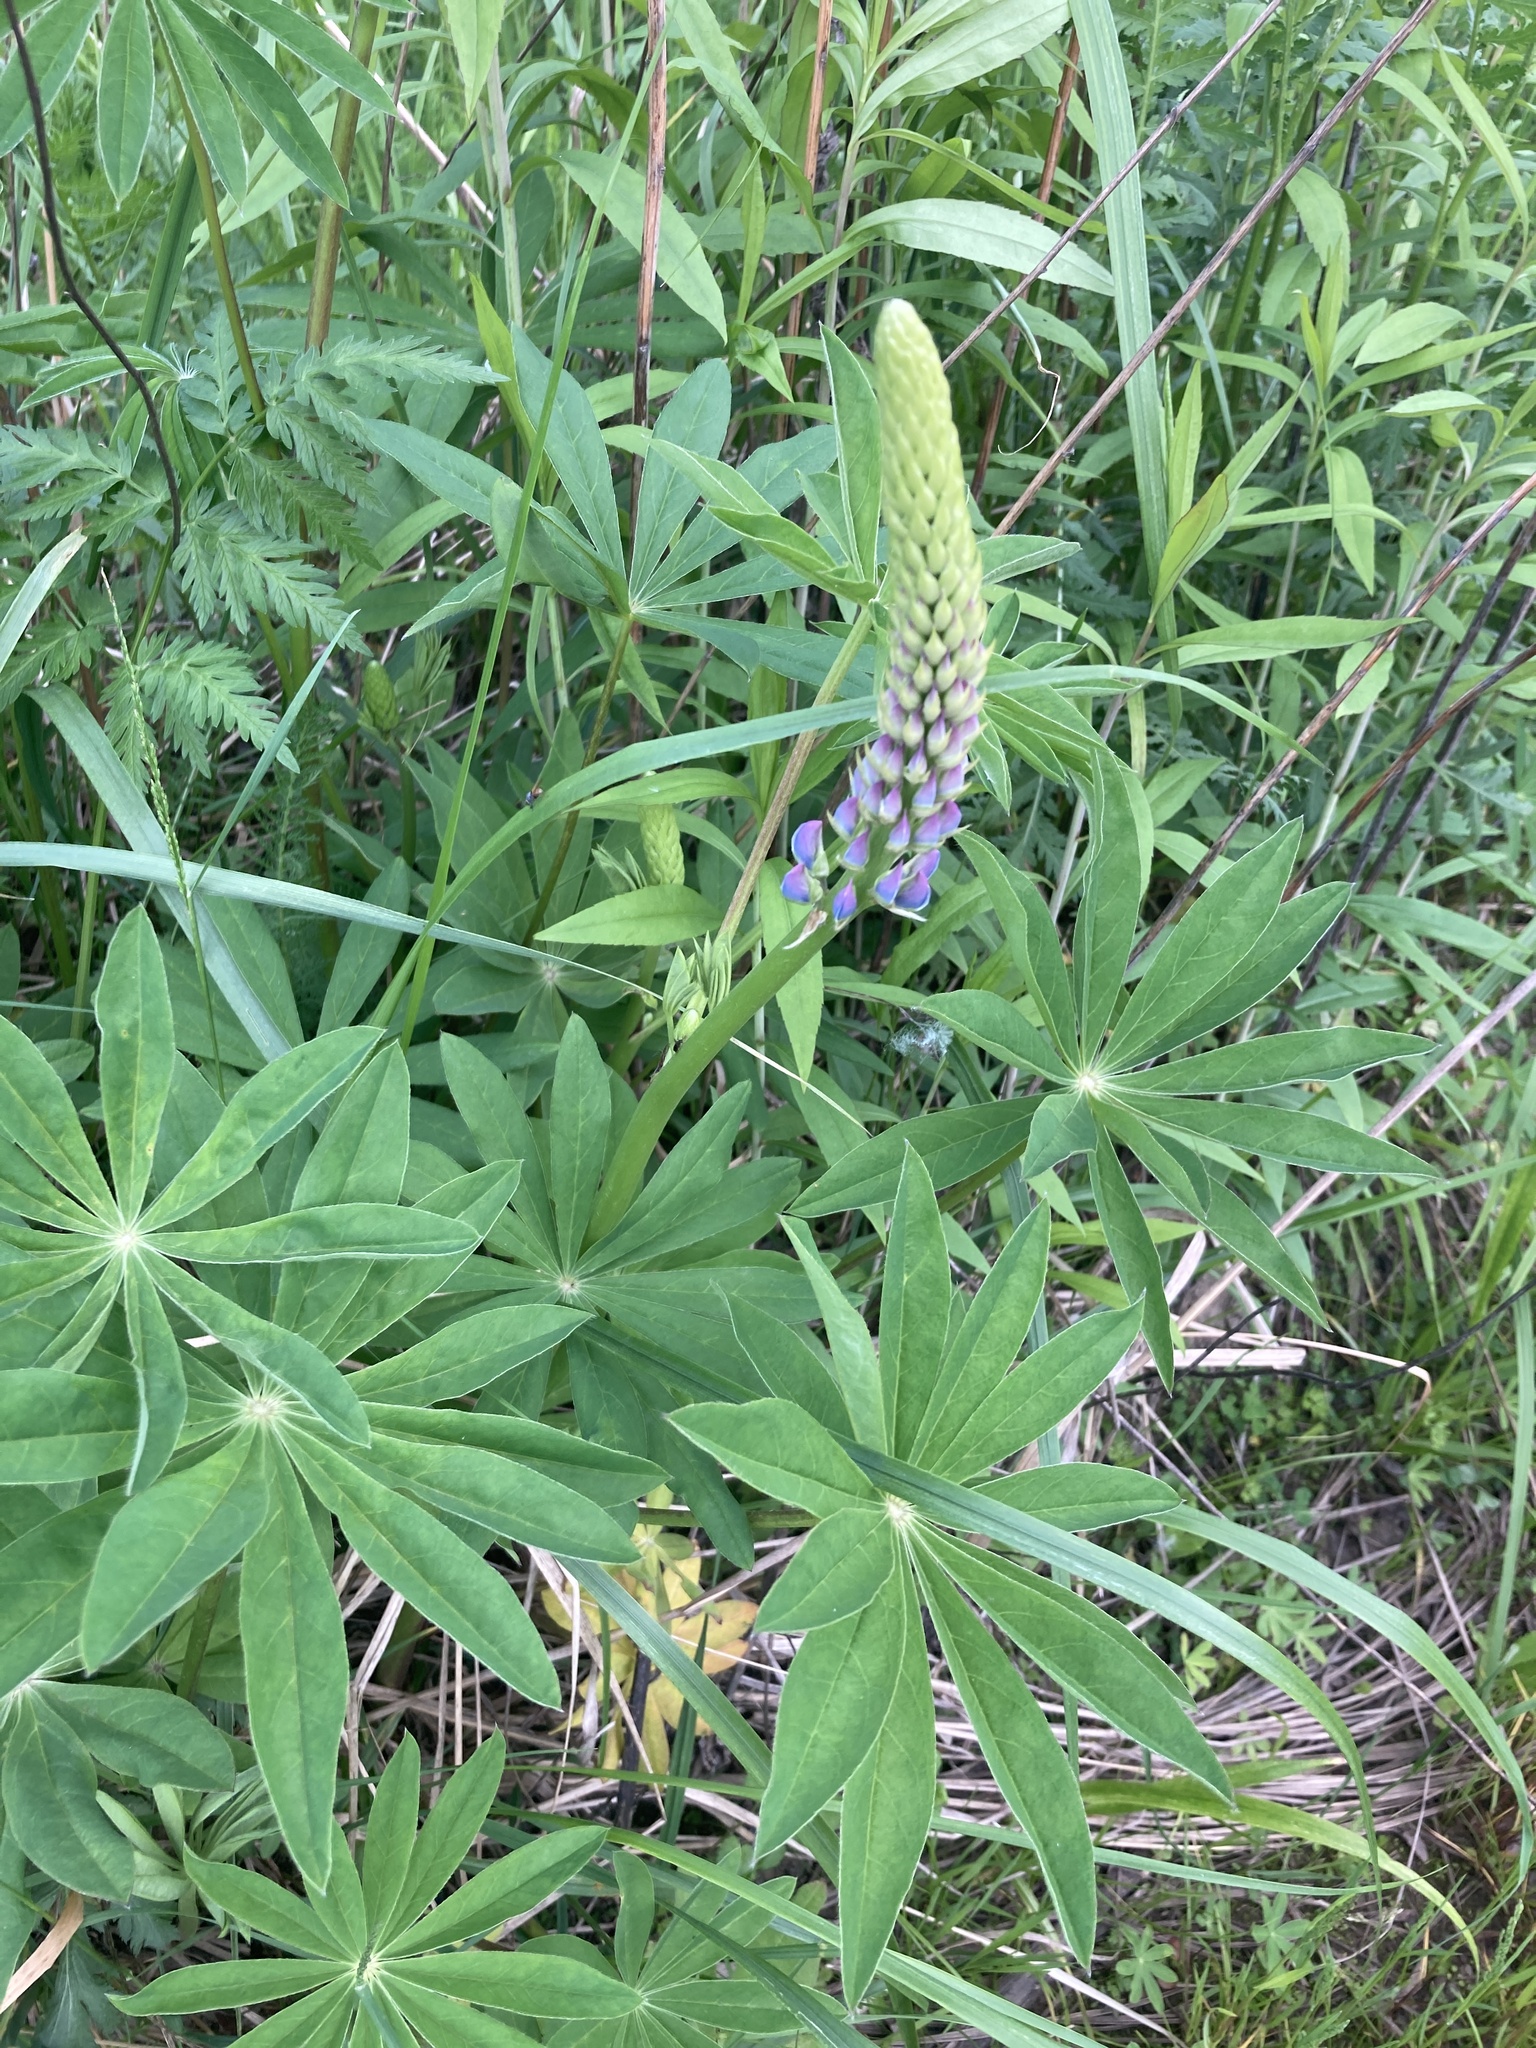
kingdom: Plantae
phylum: Tracheophyta
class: Magnoliopsida
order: Fabales
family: Fabaceae
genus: Lupinus
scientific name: Lupinus polyphyllus
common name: Garden lupin
